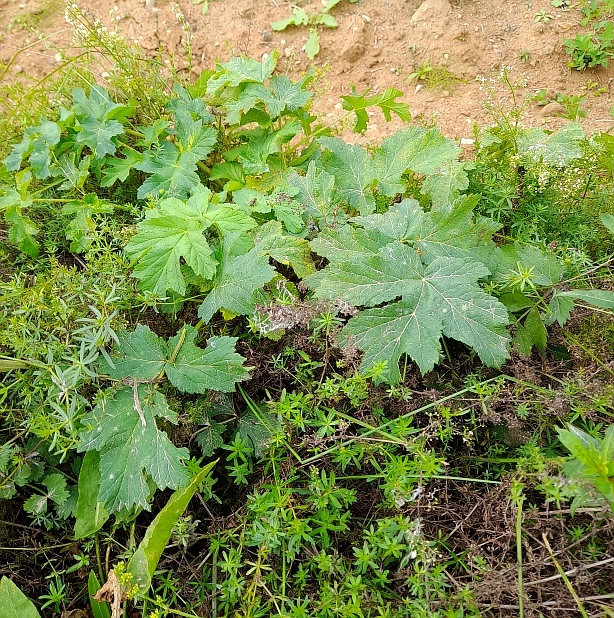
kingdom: Plantae
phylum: Tracheophyta
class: Magnoliopsida
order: Apiales
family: Apiaceae
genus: Heracleum
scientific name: Heracleum sosnowskyi
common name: Sosnowsky's hogweed
